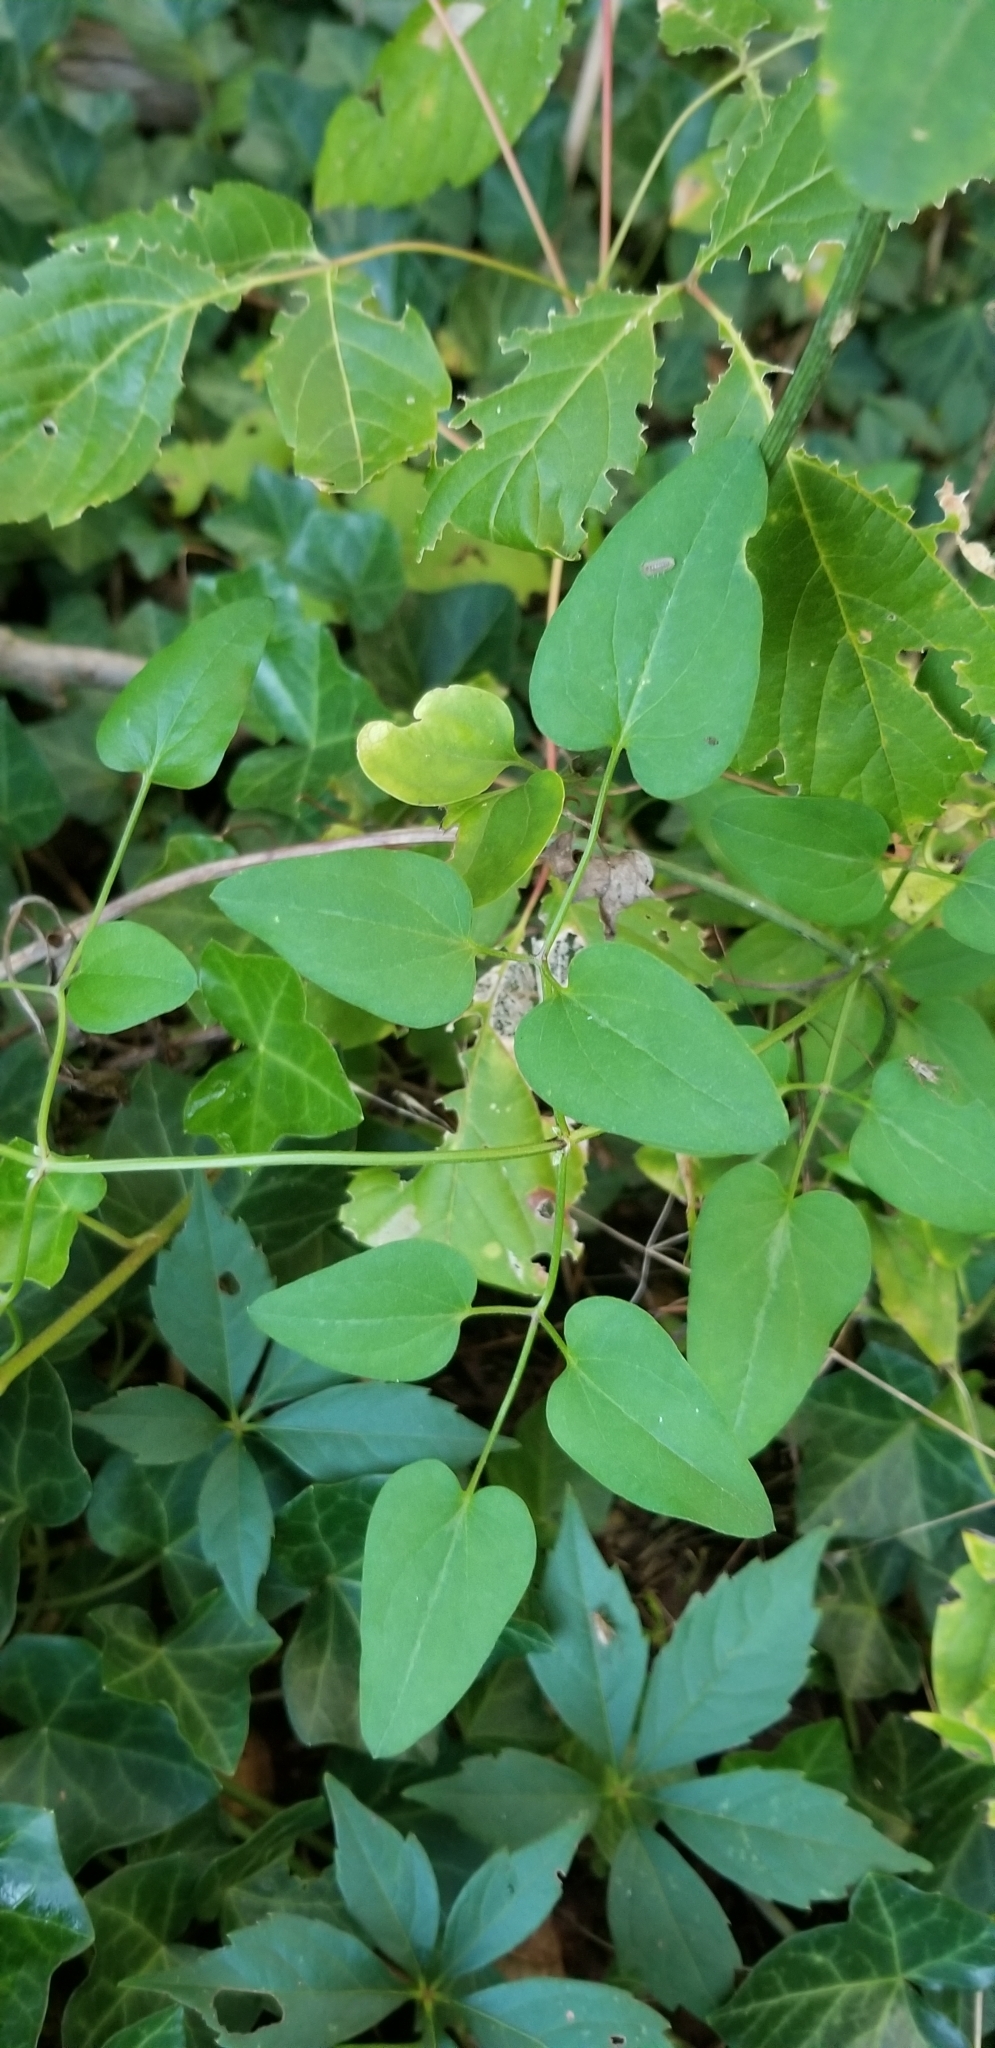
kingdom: Plantae
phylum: Tracheophyta
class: Magnoliopsida
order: Ranunculales
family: Ranunculaceae
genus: Clematis
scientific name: Clematis terniflora
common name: Sweet autumn clematis
